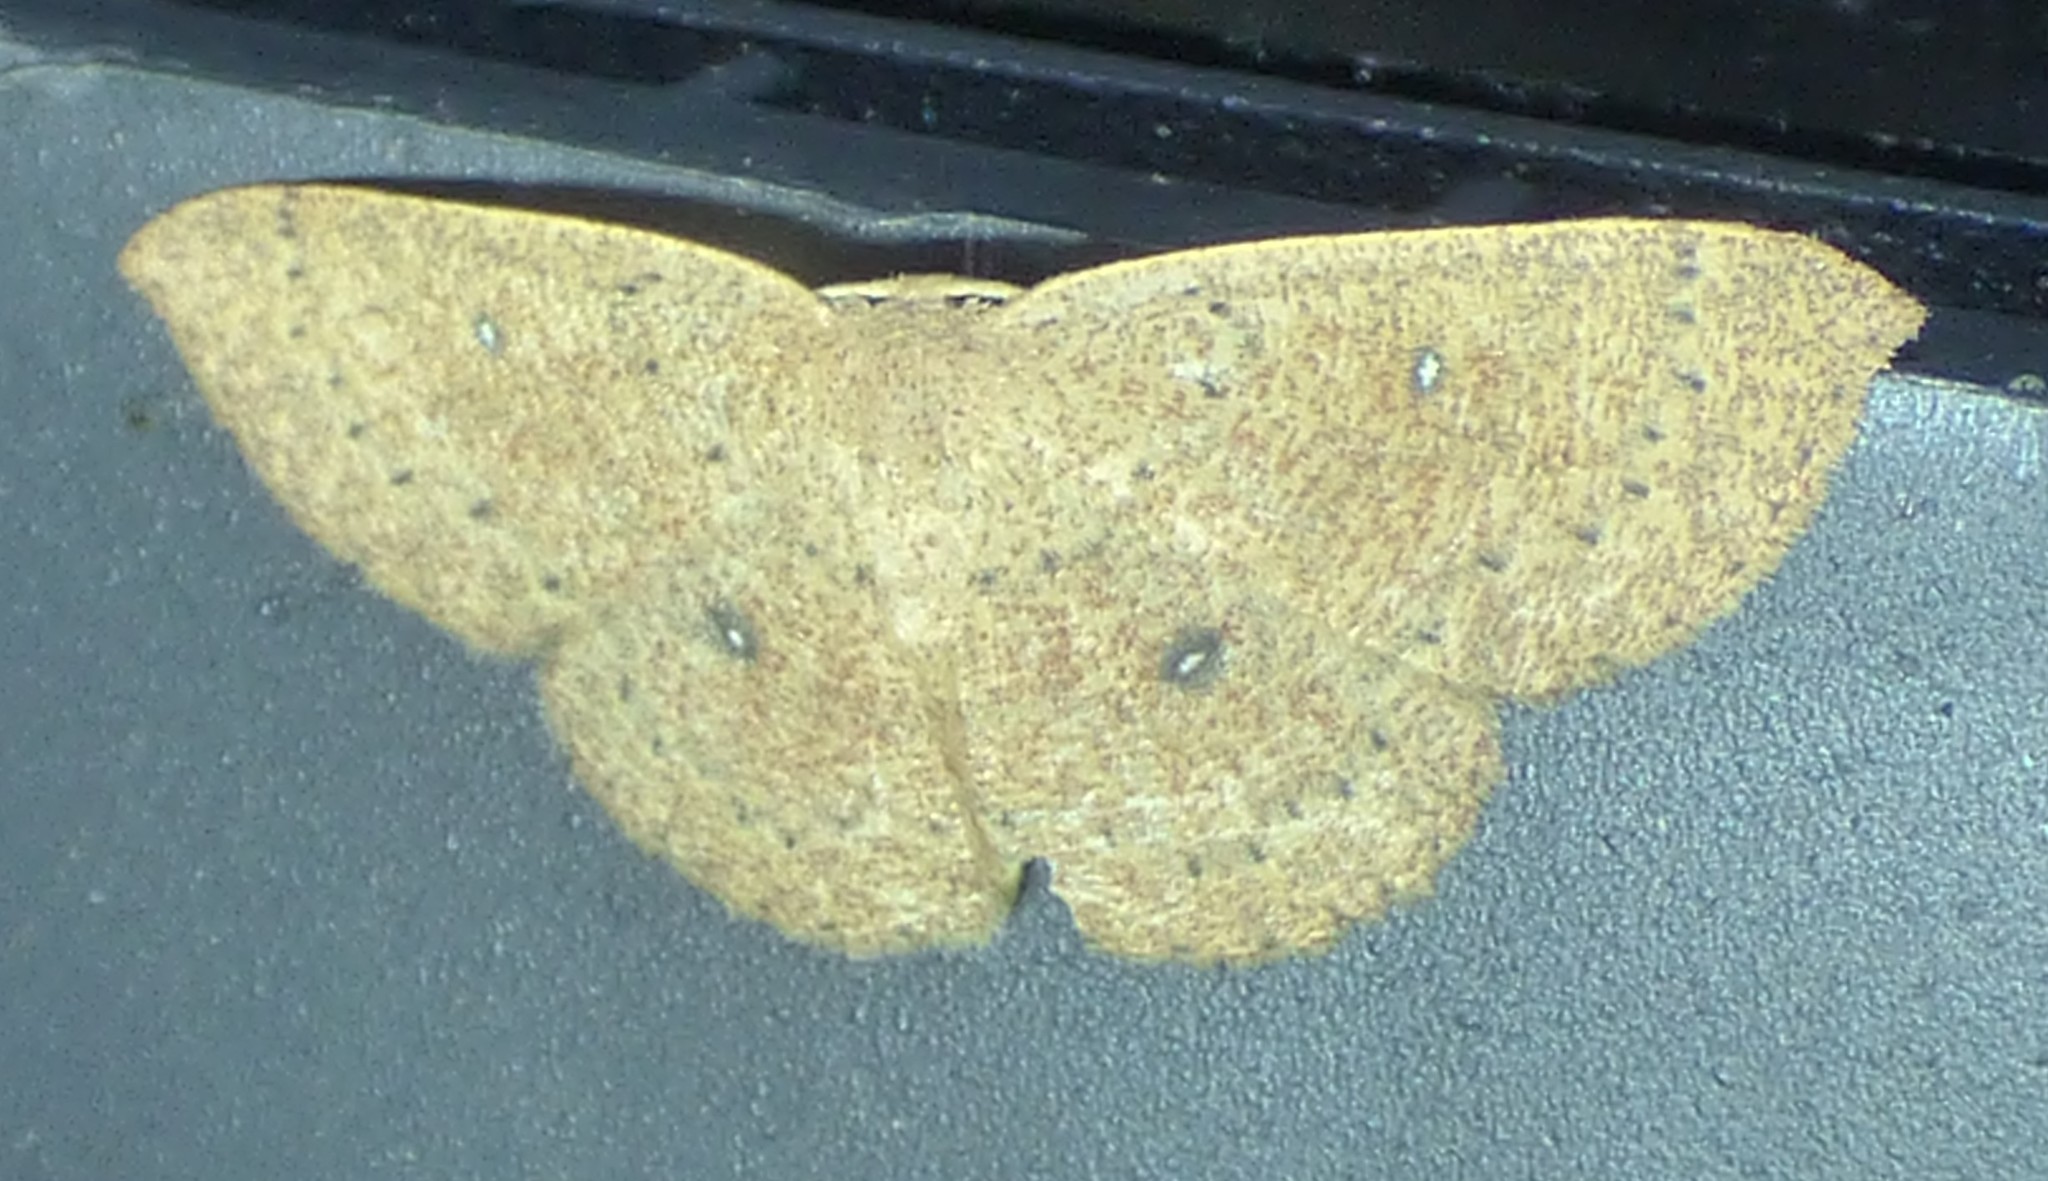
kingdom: Animalia
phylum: Arthropoda
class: Insecta
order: Lepidoptera
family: Geometridae
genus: Cyclophora
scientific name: Cyclophora packardi
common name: Packard's wave
